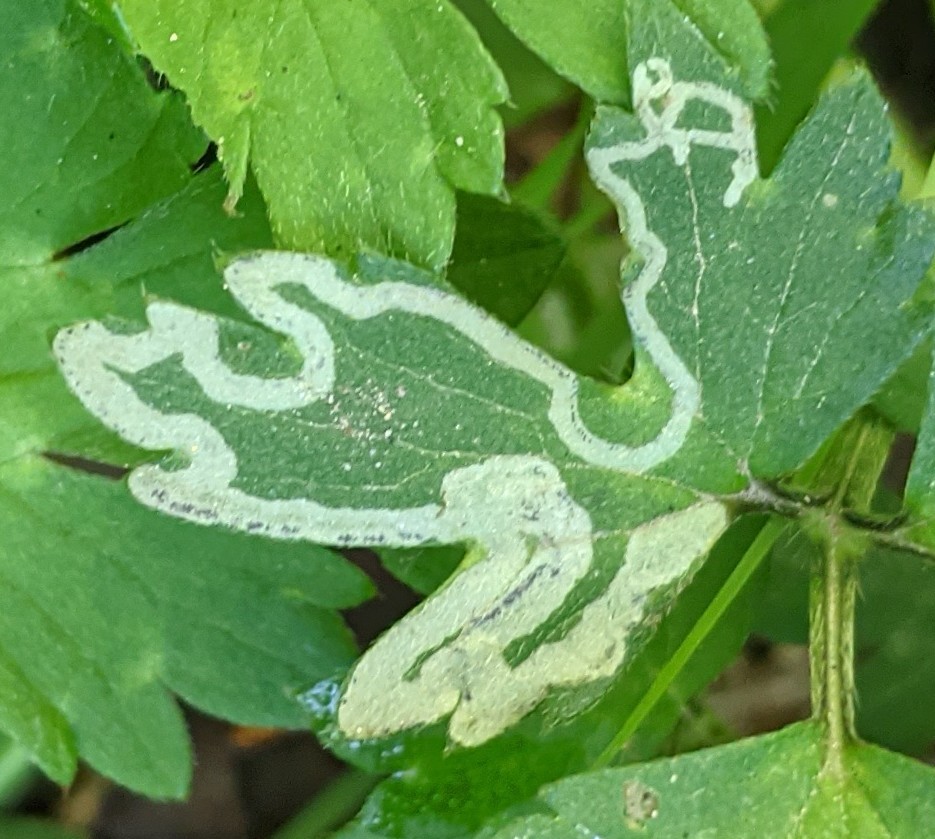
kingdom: Animalia
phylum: Arthropoda
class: Insecta
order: Diptera
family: Agromyzidae
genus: Phytomyza
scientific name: Phytomyza ranunculi
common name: Leaf-miner fly
